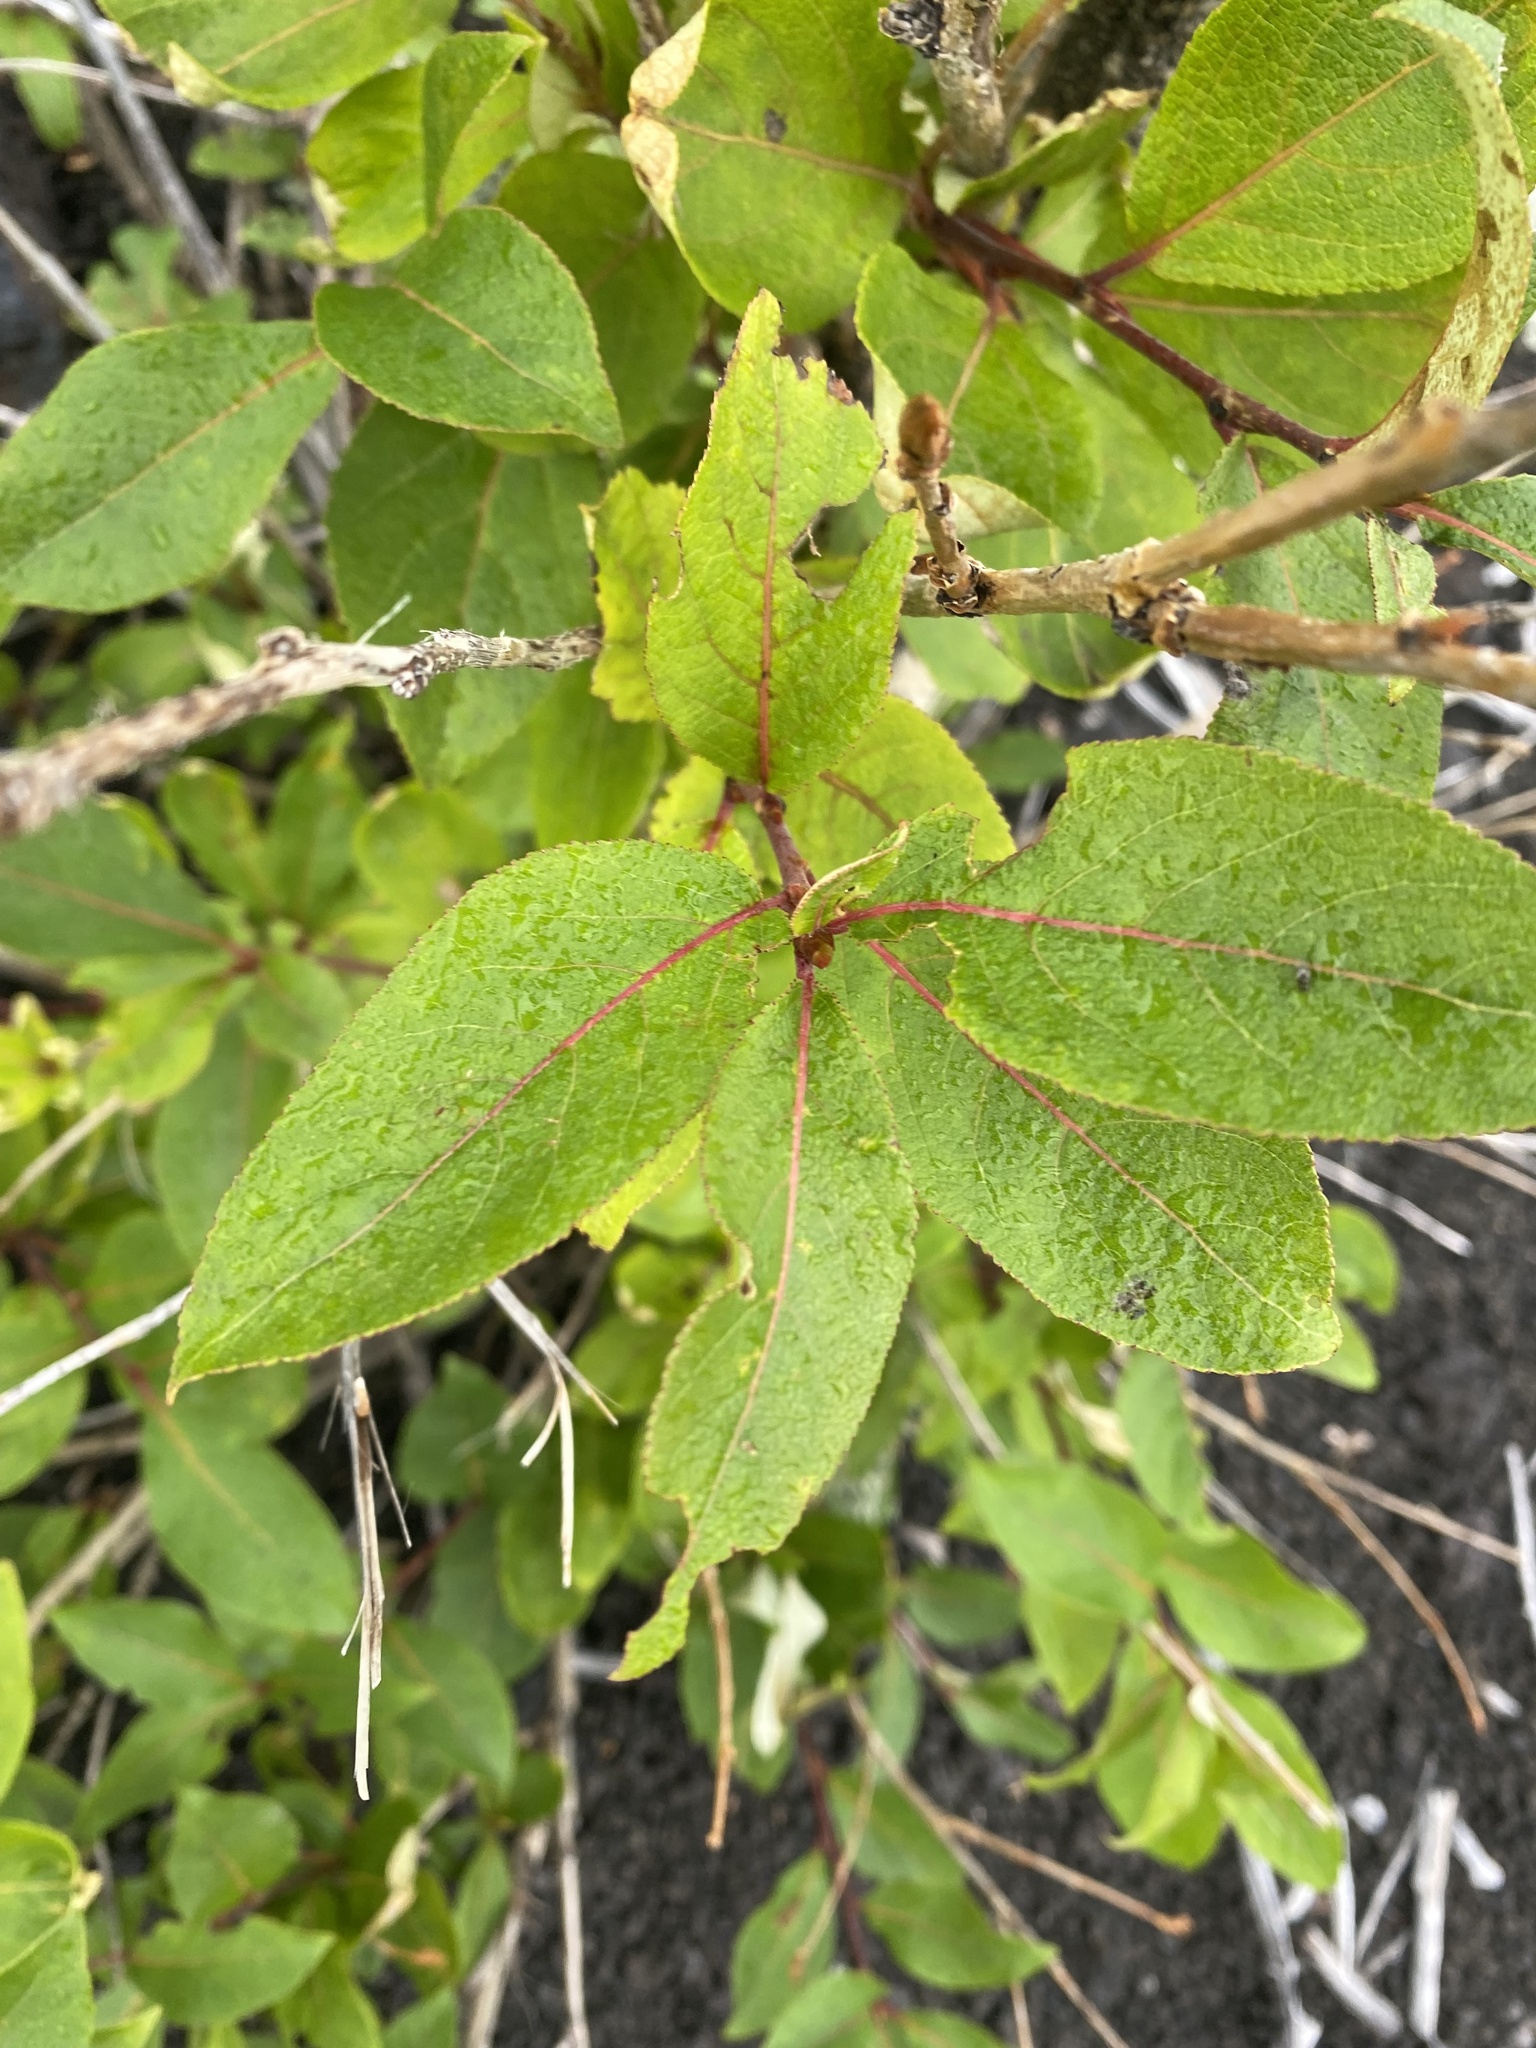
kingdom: Plantae
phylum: Tracheophyta
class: Magnoliopsida
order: Malpighiales
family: Salicaceae
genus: Populus
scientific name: Populus suaveolens
